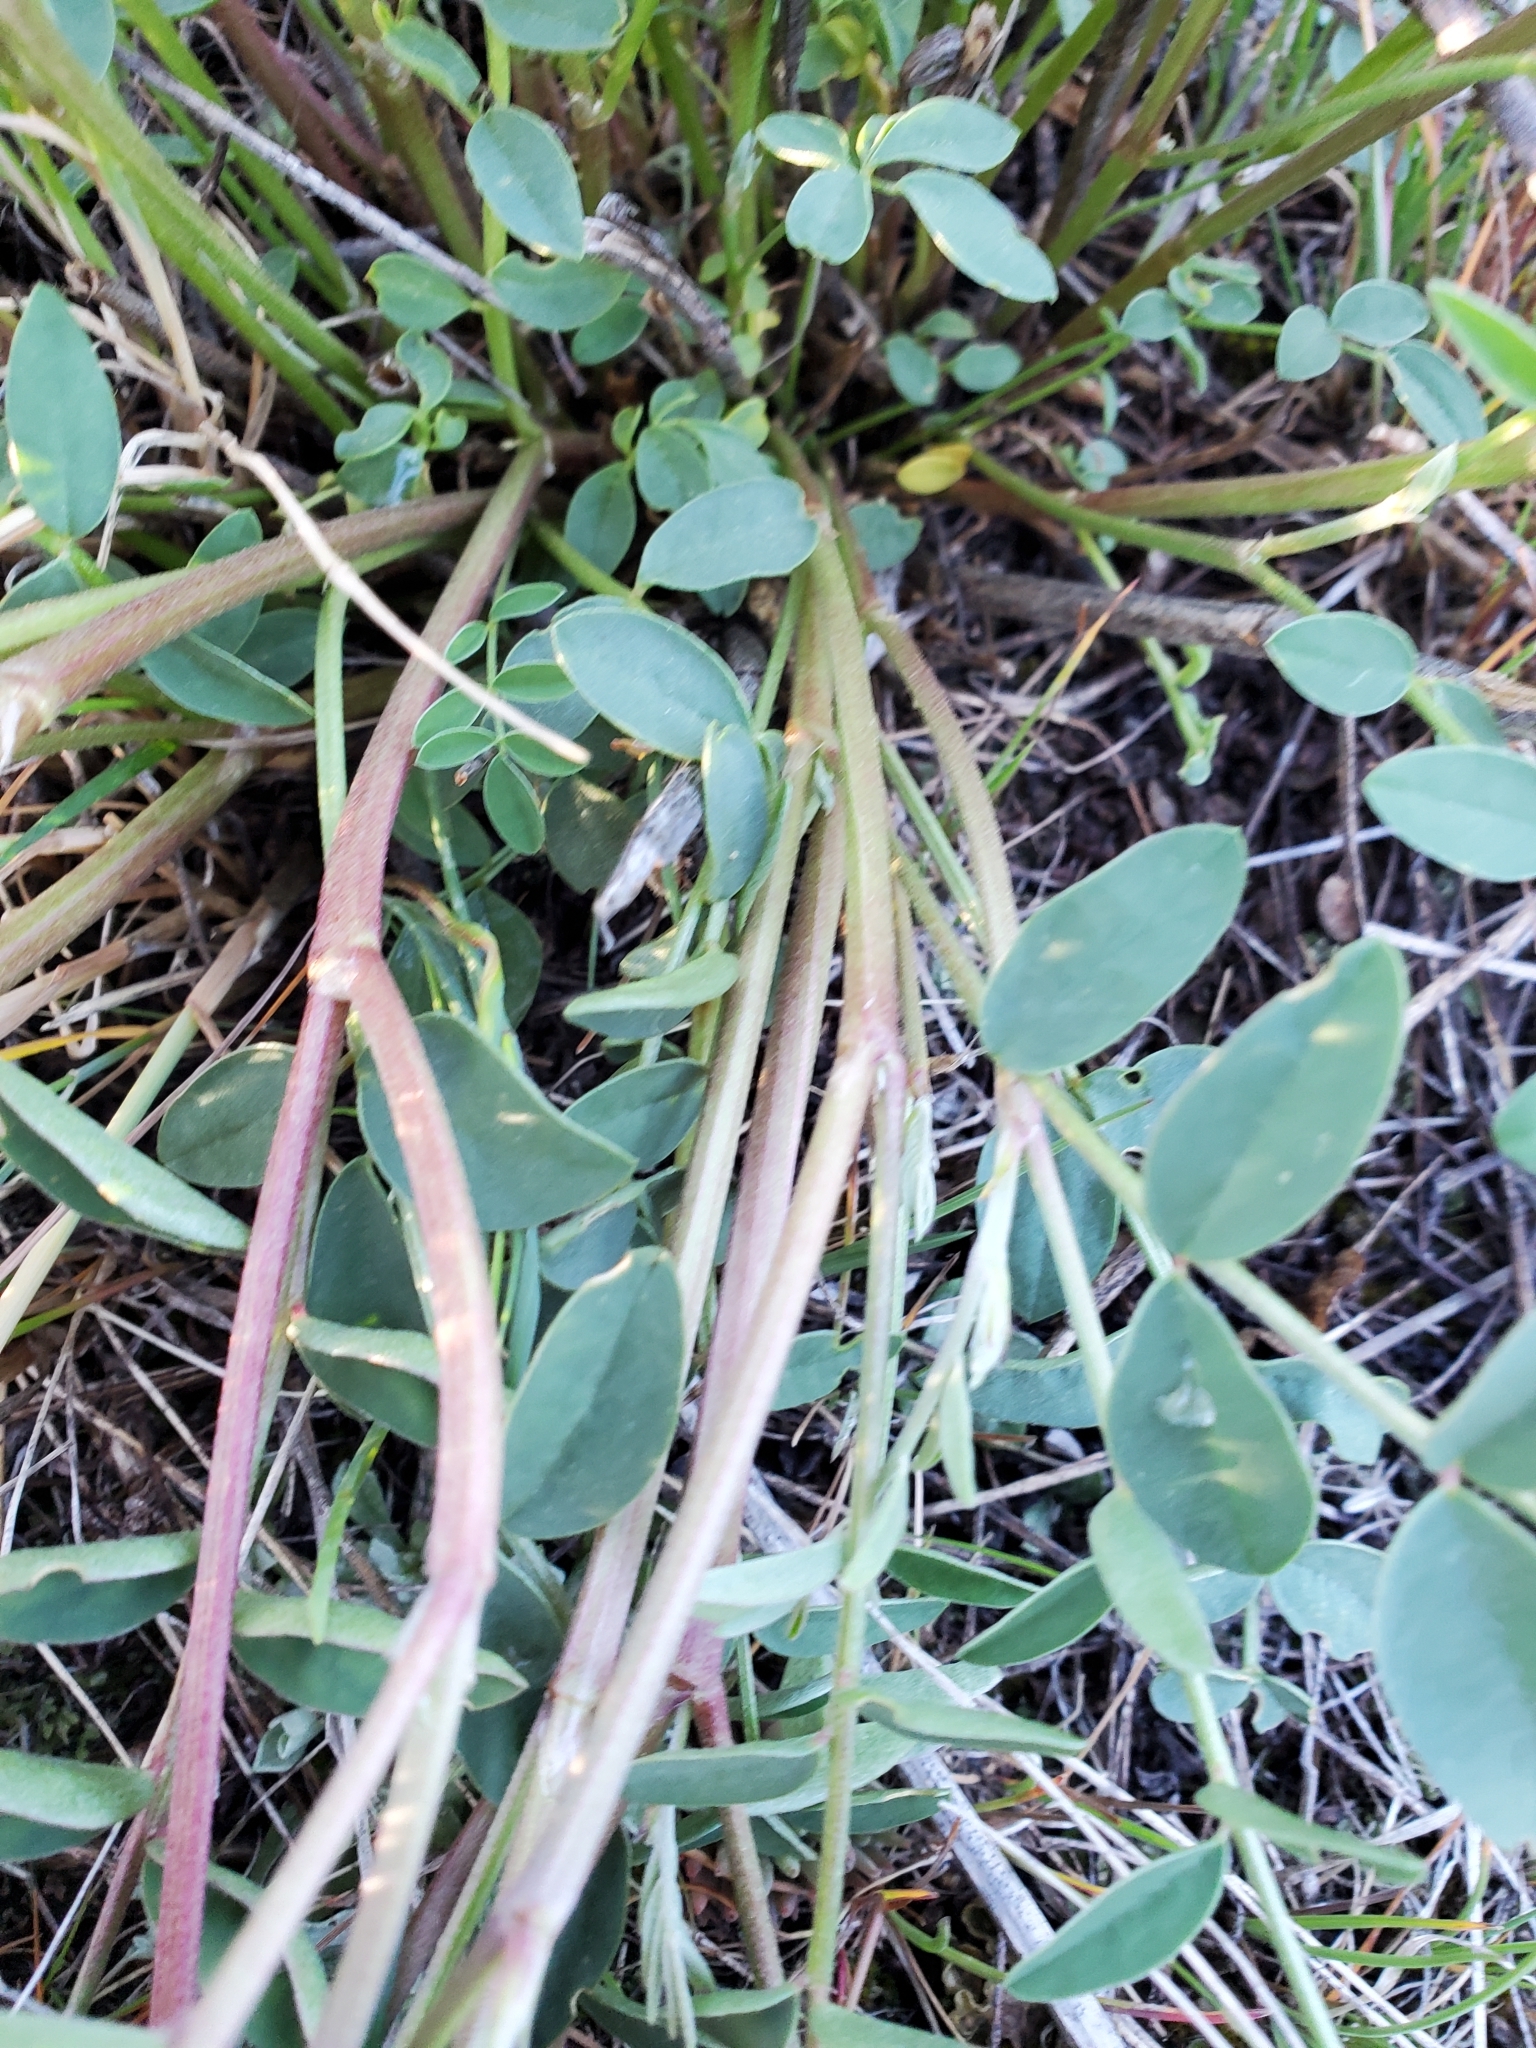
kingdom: Plantae
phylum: Tracheophyta
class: Magnoliopsida
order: Fabales
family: Fabaceae
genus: Hedysarum
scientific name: Hedysarum boreale
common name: Northern sweet-vetch
